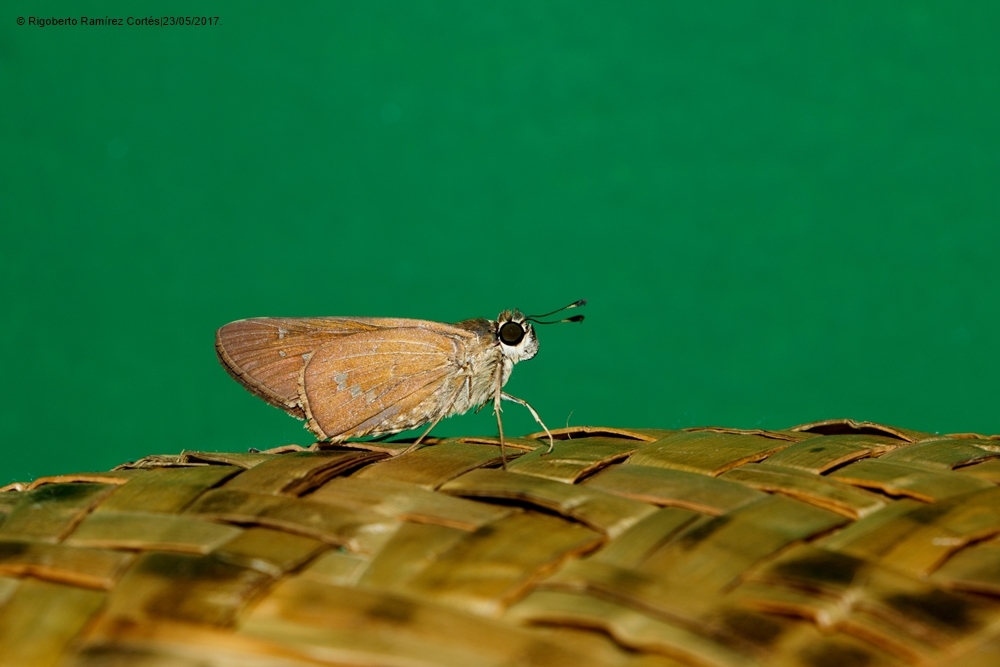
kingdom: Animalia
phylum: Arthropoda
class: Insecta
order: Lepidoptera
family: Hesperiidae
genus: Calpodes
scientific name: Calpodes ethlius
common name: Brazilian skipper
